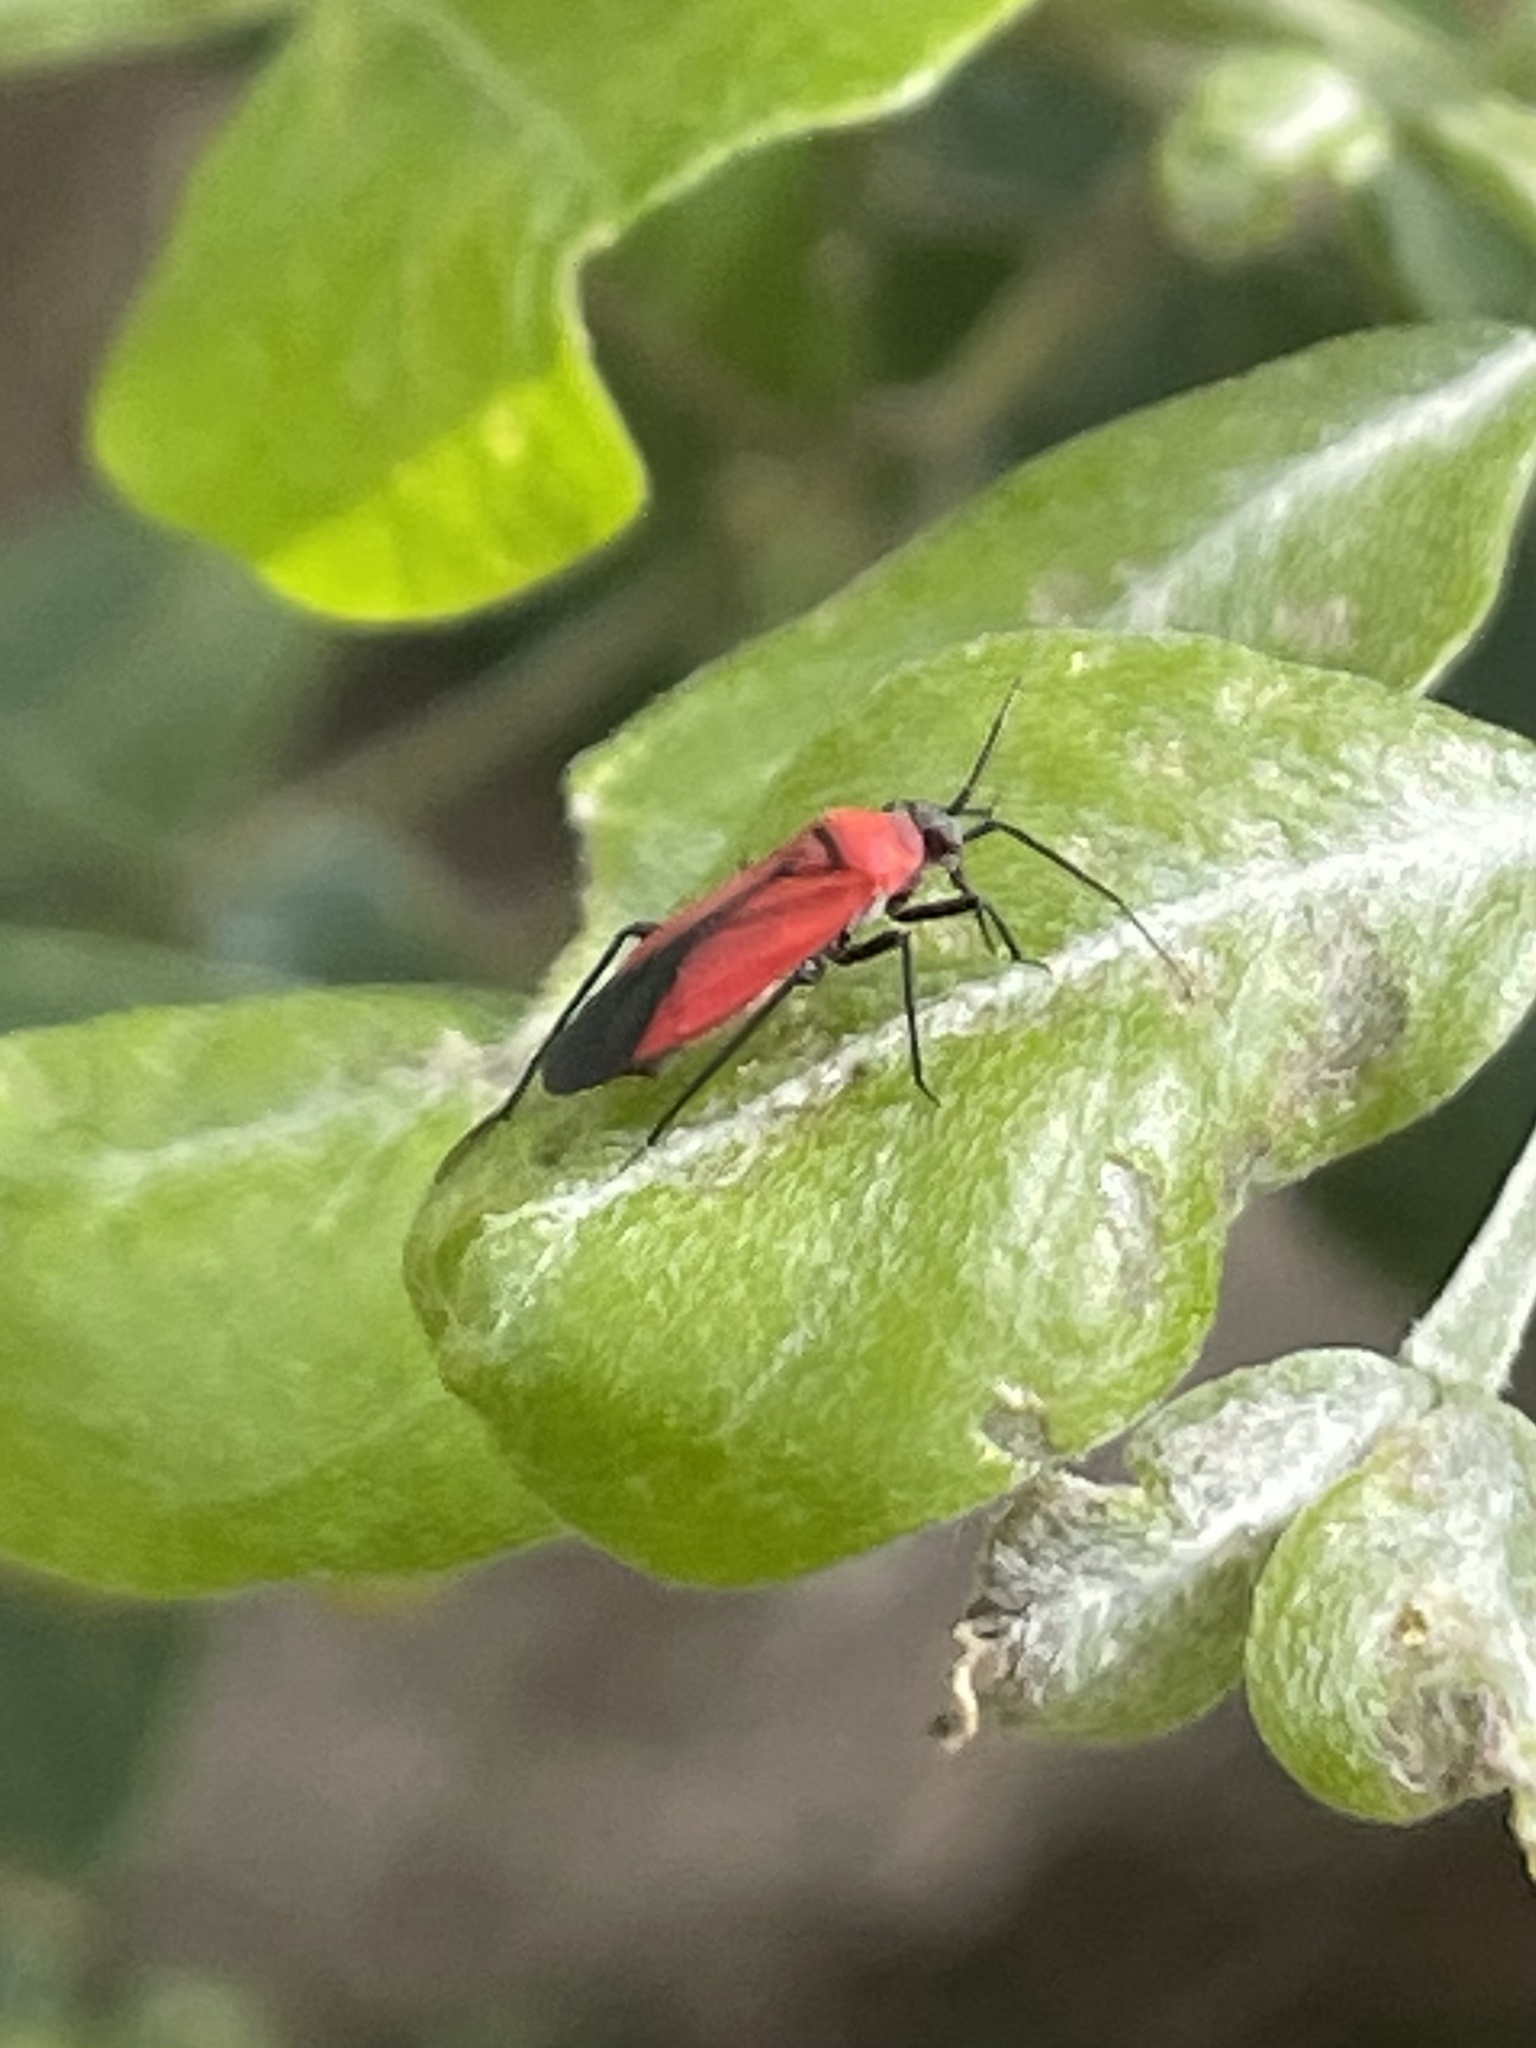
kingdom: Animalia
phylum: Arthropoda
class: Insecta
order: Hemiptera
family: Miridae
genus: Lopidea
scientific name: Lopidea major
